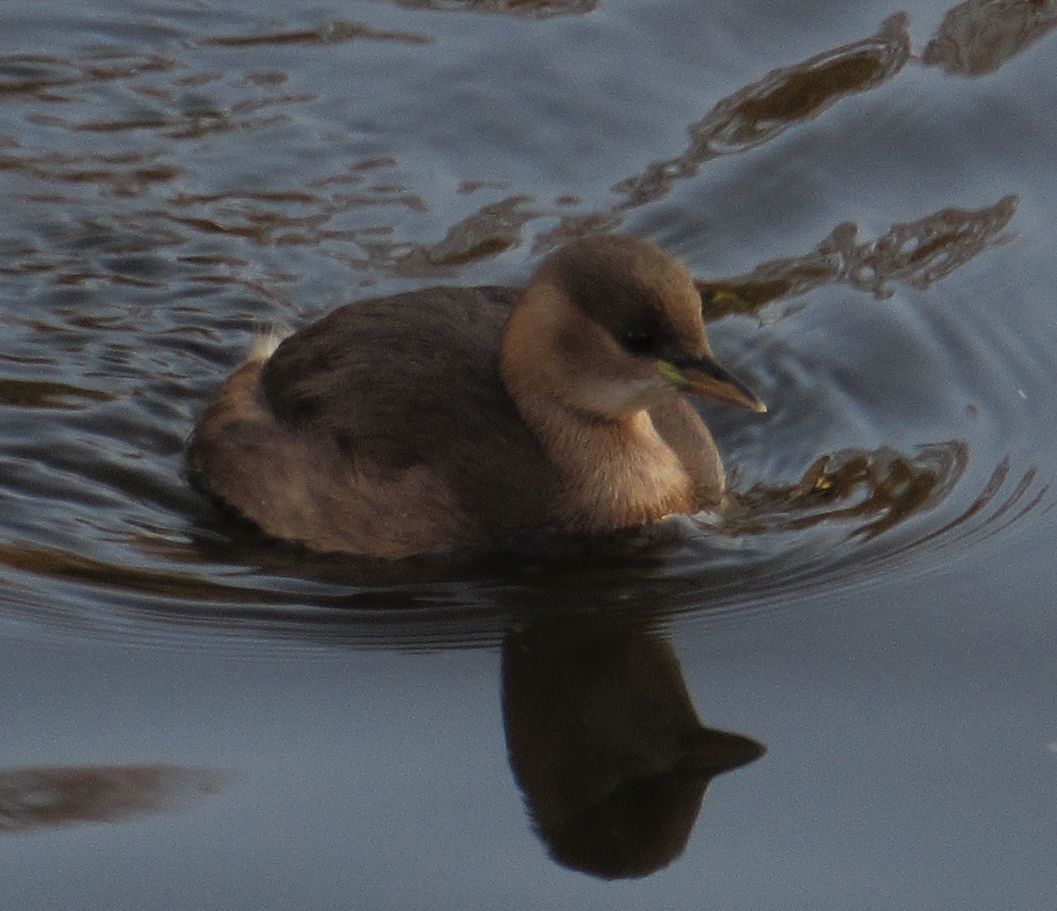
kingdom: Animalia
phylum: Chordata
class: Aves
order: Podicipediformes
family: Podicipedidae
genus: Tachybaptus
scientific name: Tachybaptus ruficollis
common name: Little grebe
